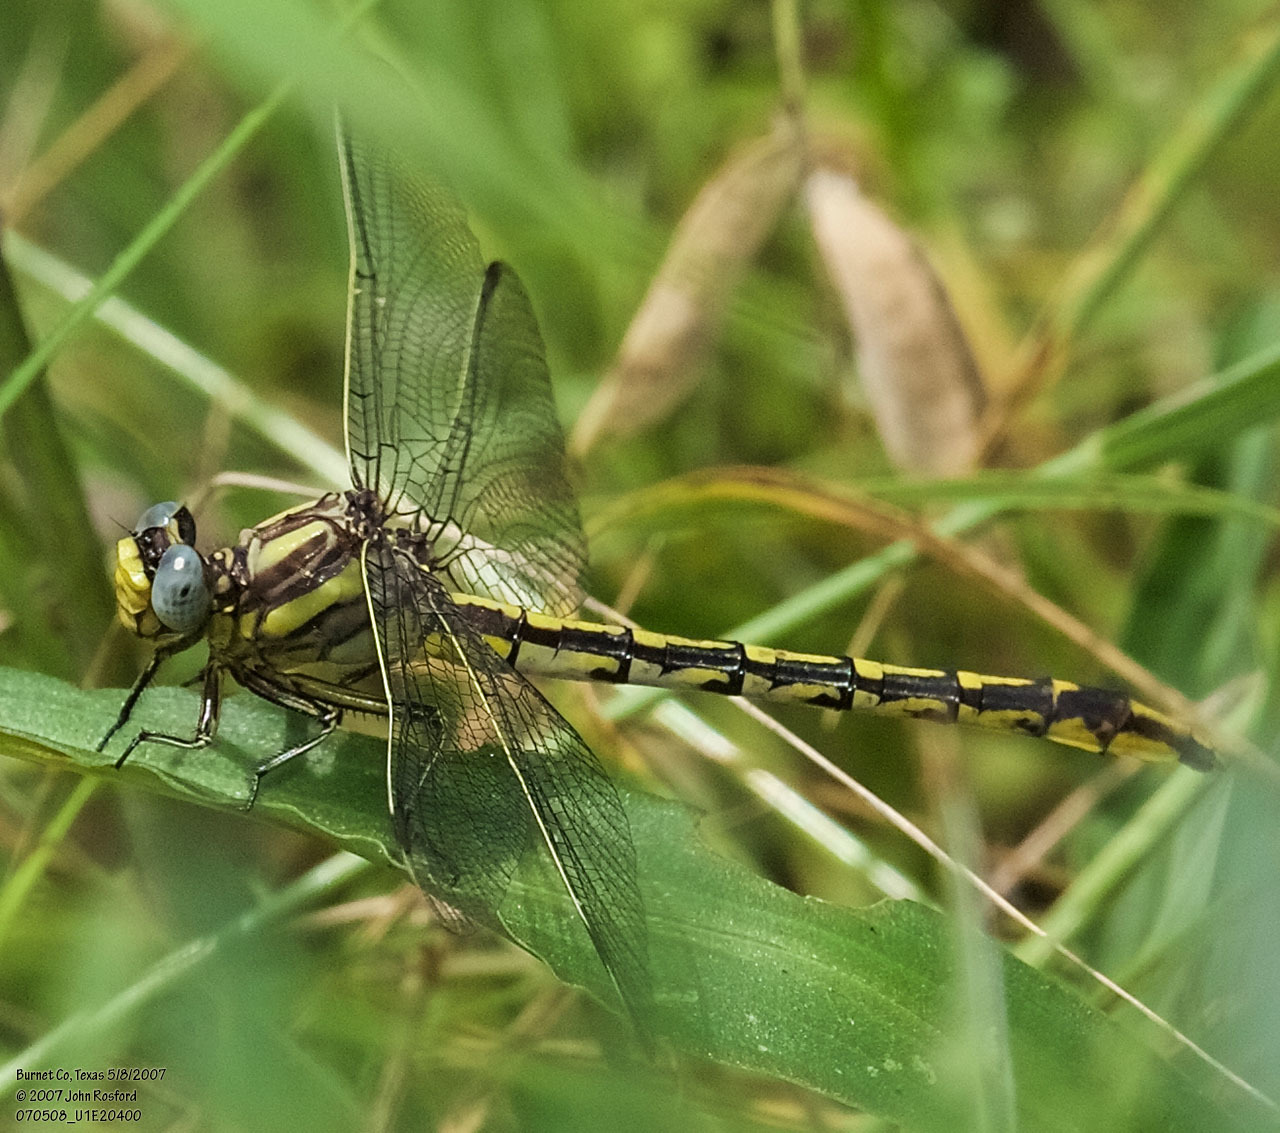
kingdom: Animalia
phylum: Arthropoda
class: Insecta
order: Odonata
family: Gomphidae
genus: Phanogomphus
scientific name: Phanogomphus militaris
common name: Sulphur-tipped clubtail
